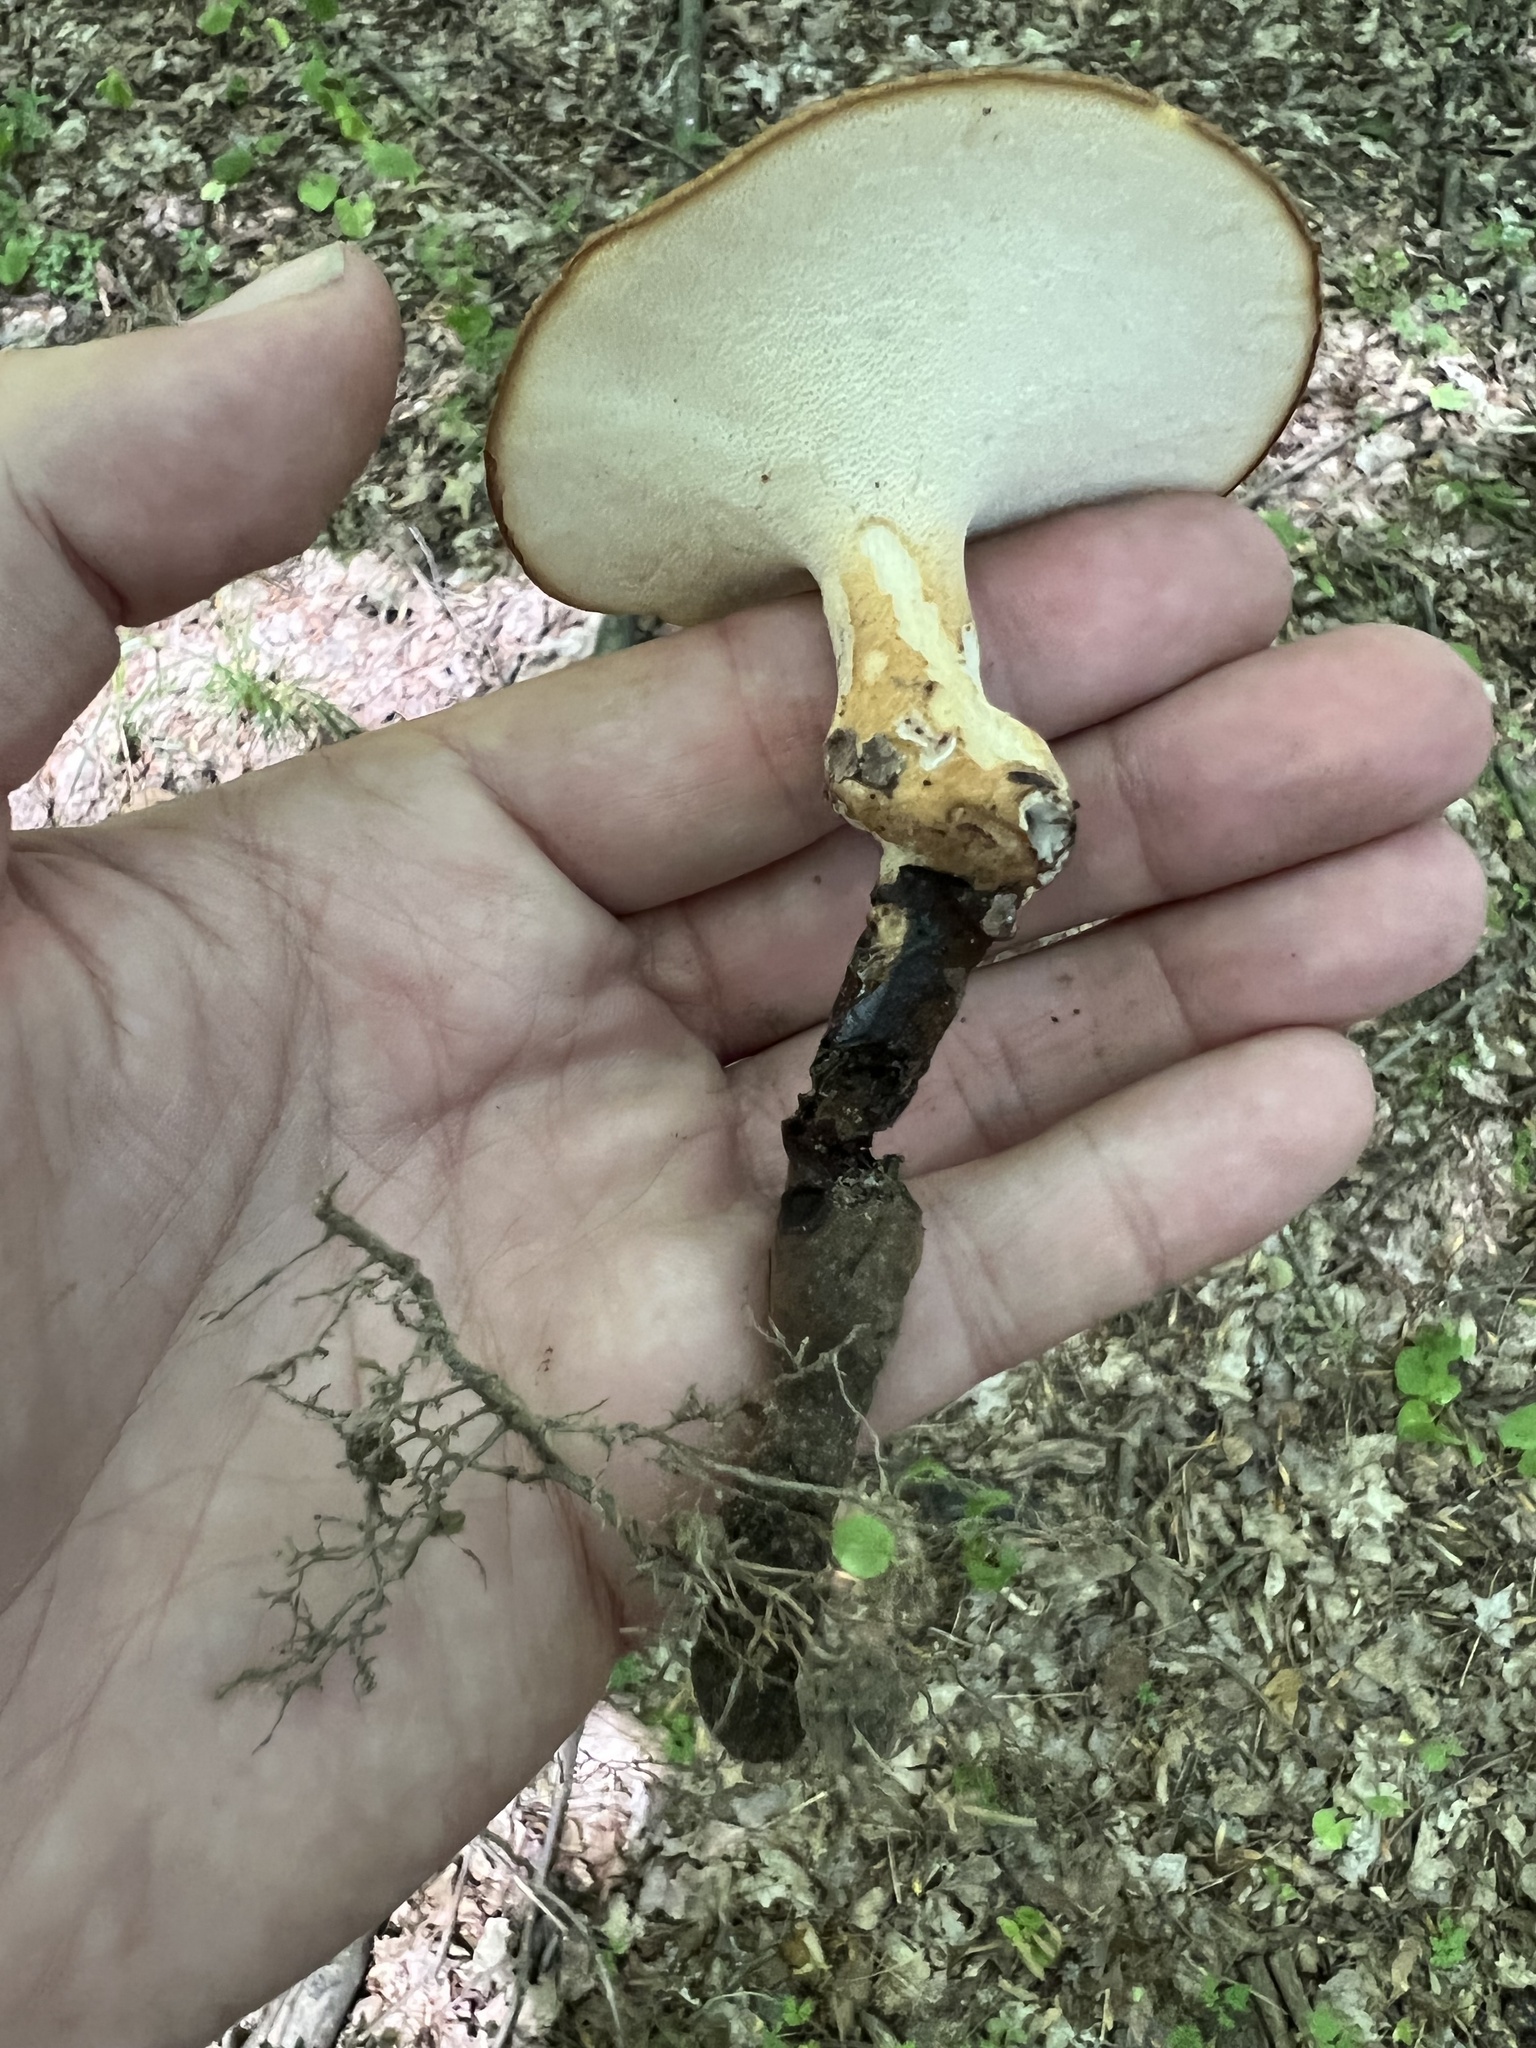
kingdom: Fungi
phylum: Basidiomycota
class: Agaricomycetes
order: Polyporales
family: Polyporaceae
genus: Polyporus
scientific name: Polyporus radicatus
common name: Rooting polypore
